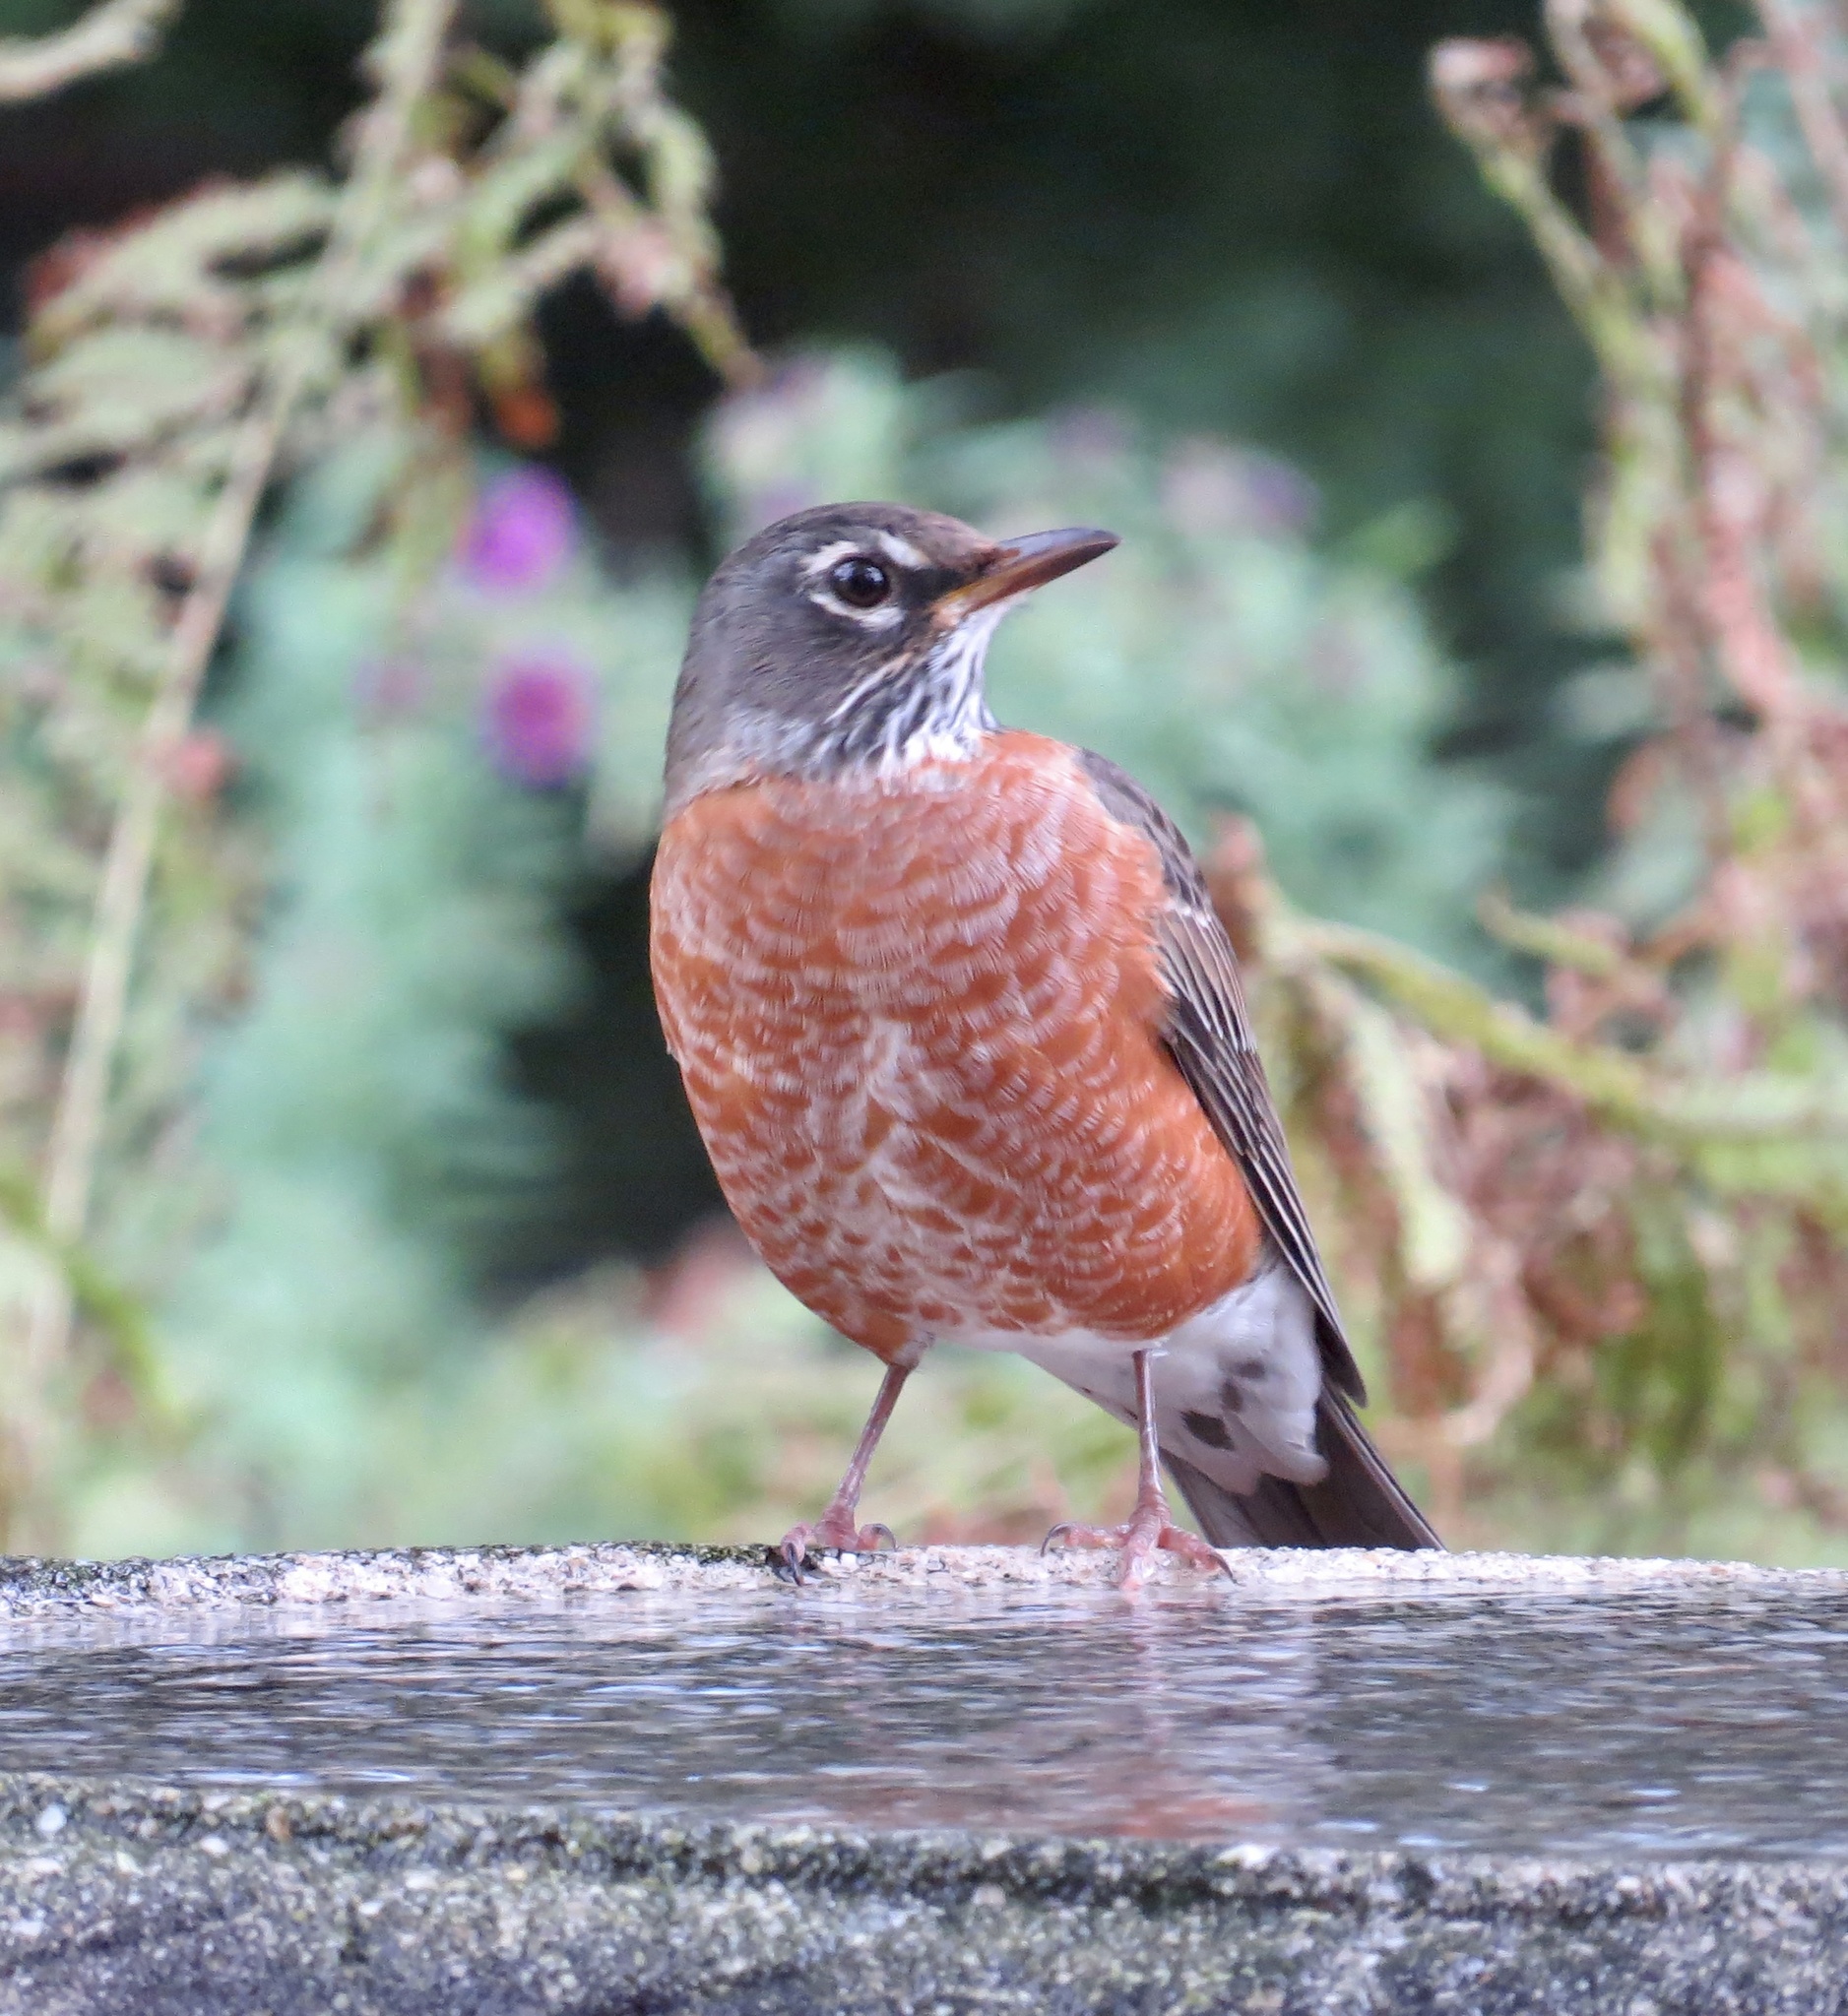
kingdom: Animalia
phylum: Chordata
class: Aves
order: Passeriformes
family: Turdidae
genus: Turdus
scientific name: Turdus migratorius
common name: American robin
